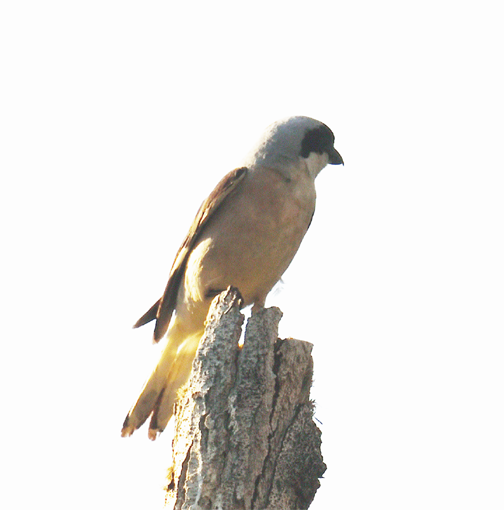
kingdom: Animalia
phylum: Chordata
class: Aves
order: Passeriformes
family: Laniidae
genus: Lanius
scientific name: Lanius minor
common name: Lesser grey shrike
